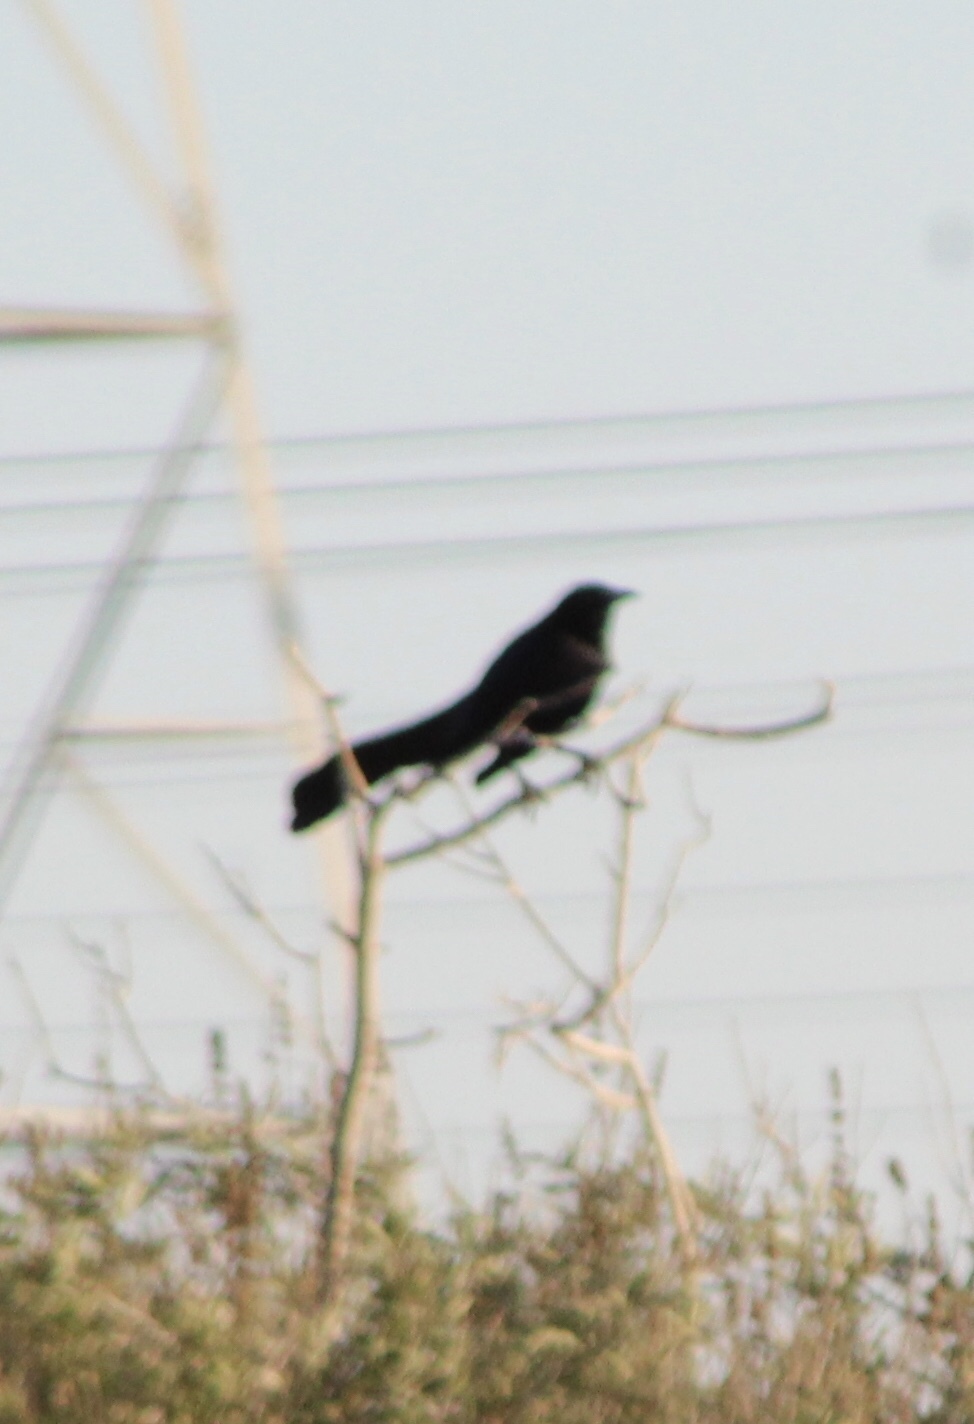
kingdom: Animalia
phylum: Chordata
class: Aves
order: Passeriformes
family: Icteridae
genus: Quiscalus
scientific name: Quiscalus mexicanus
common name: Great-tailed grackle
